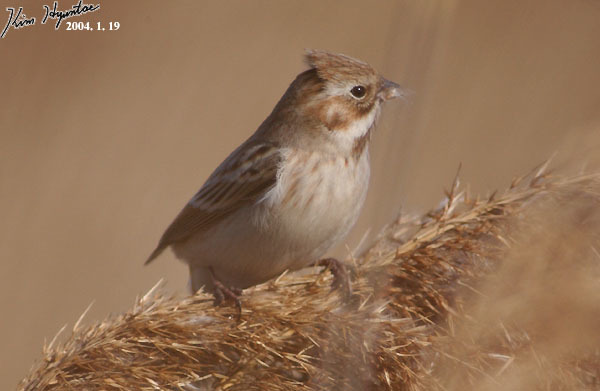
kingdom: Animalia
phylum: Chordata
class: Aves
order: Passeriformes
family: Emberizidae
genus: Emberiza
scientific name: Emberiza pallasi
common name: Pallas's reed bunting
